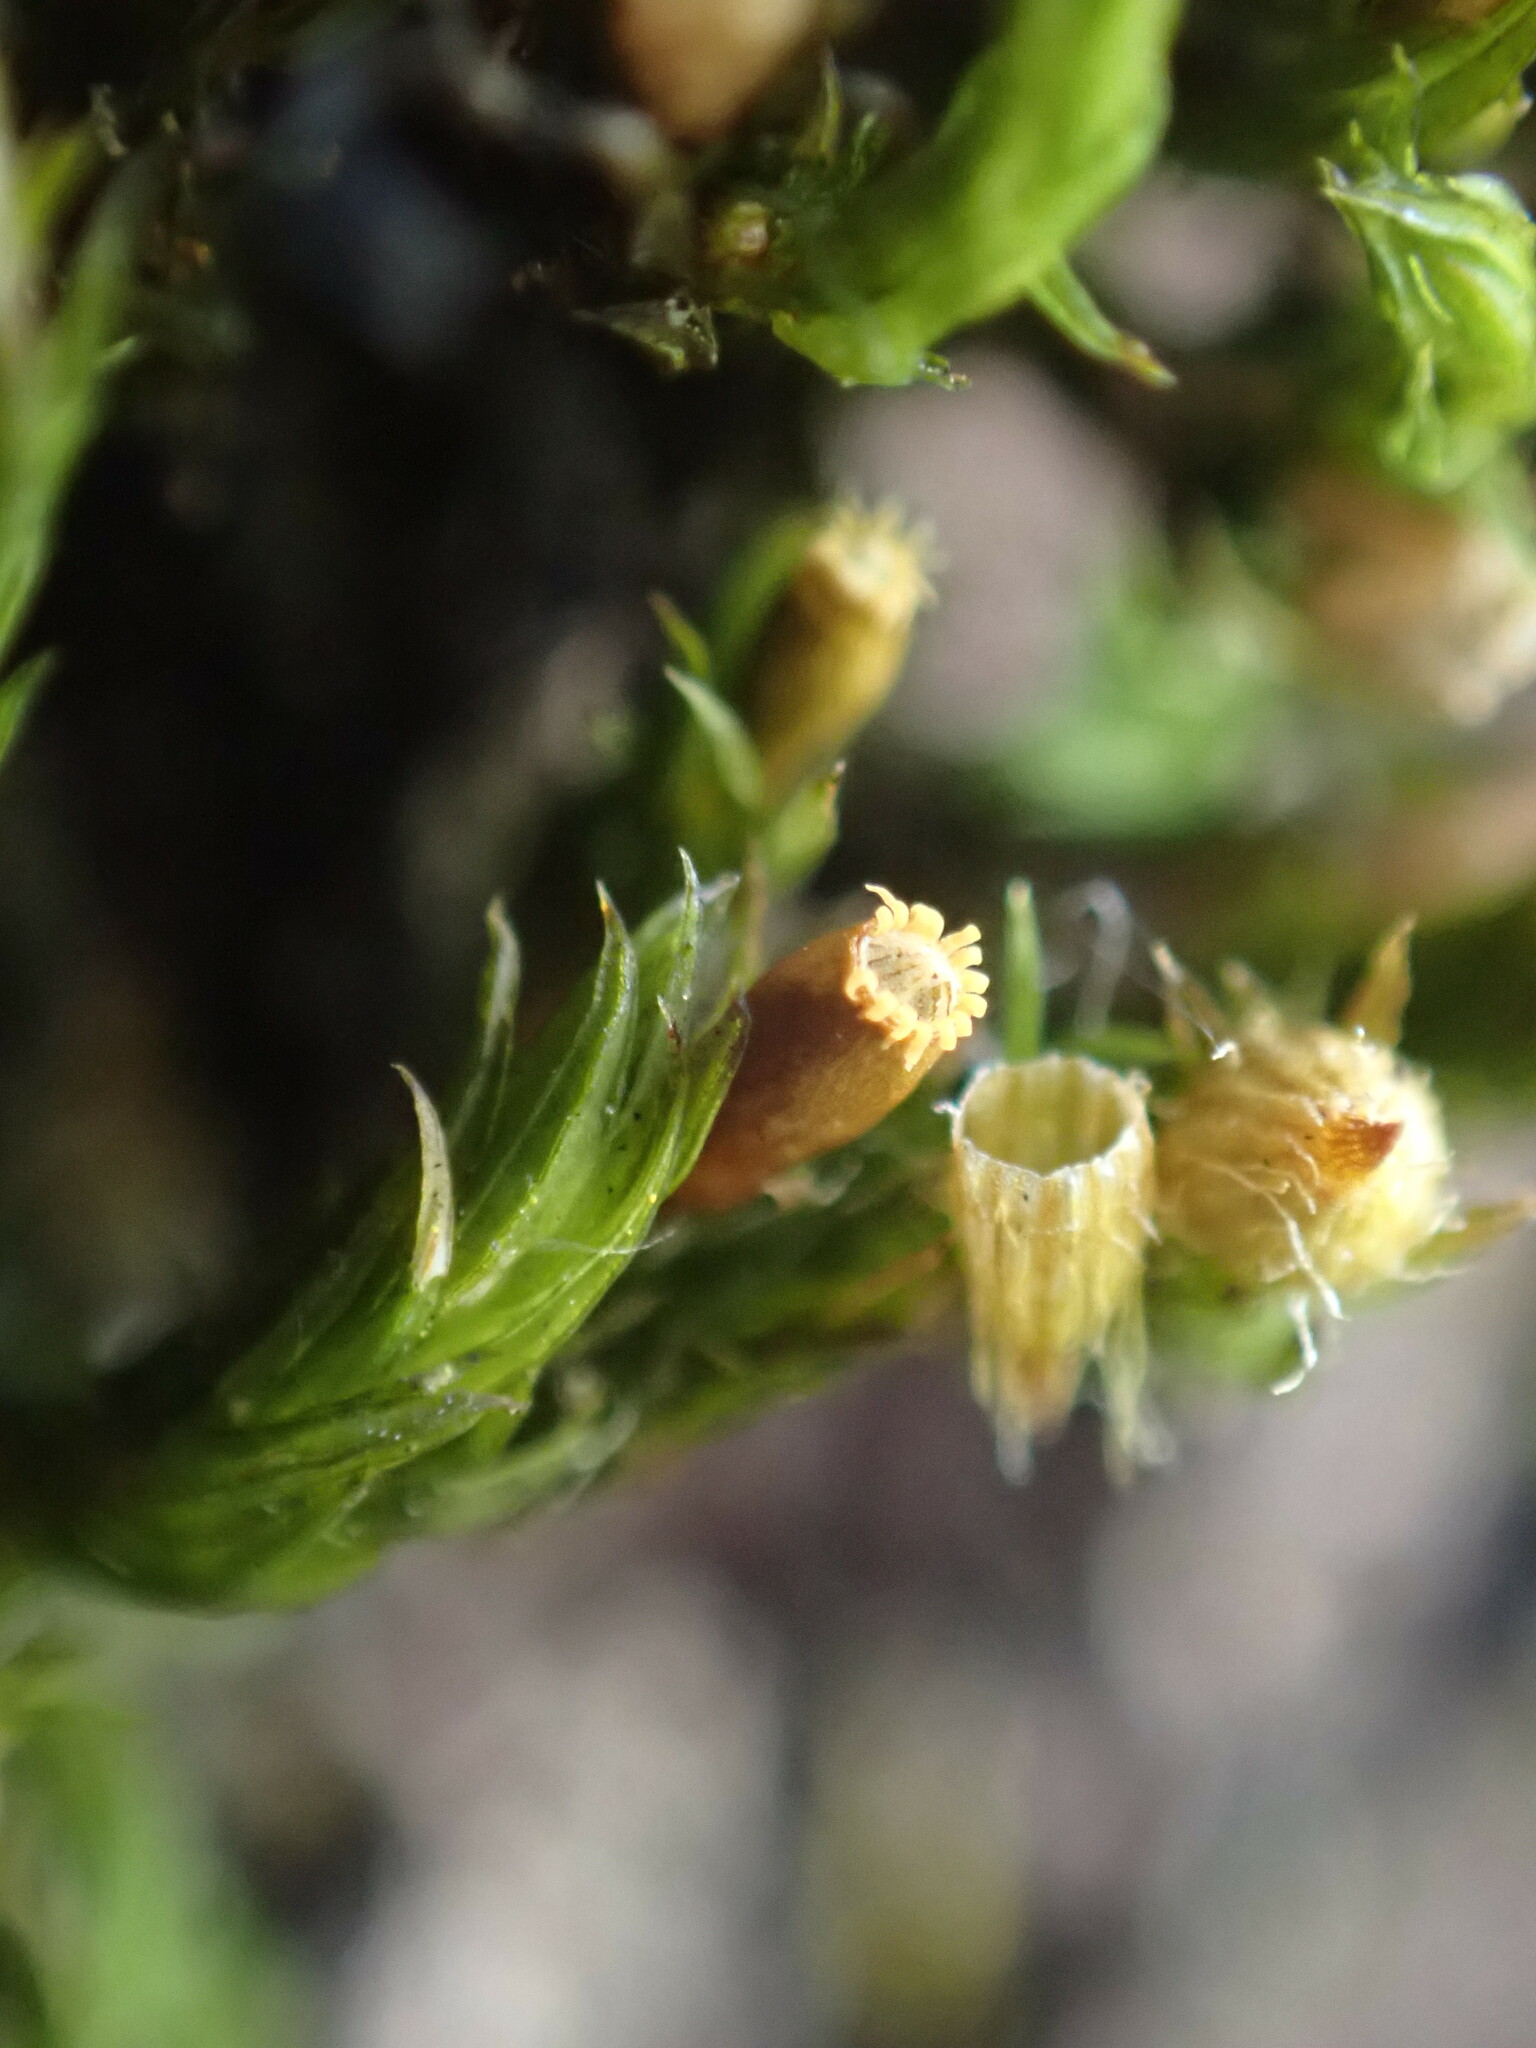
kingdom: Plantae
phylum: Bryophyta
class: Bryopsida
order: Orthotrichales
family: Orthotrichaceae
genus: Lewinskya
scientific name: Lewinskya striata
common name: Shaw's bristle-moss
